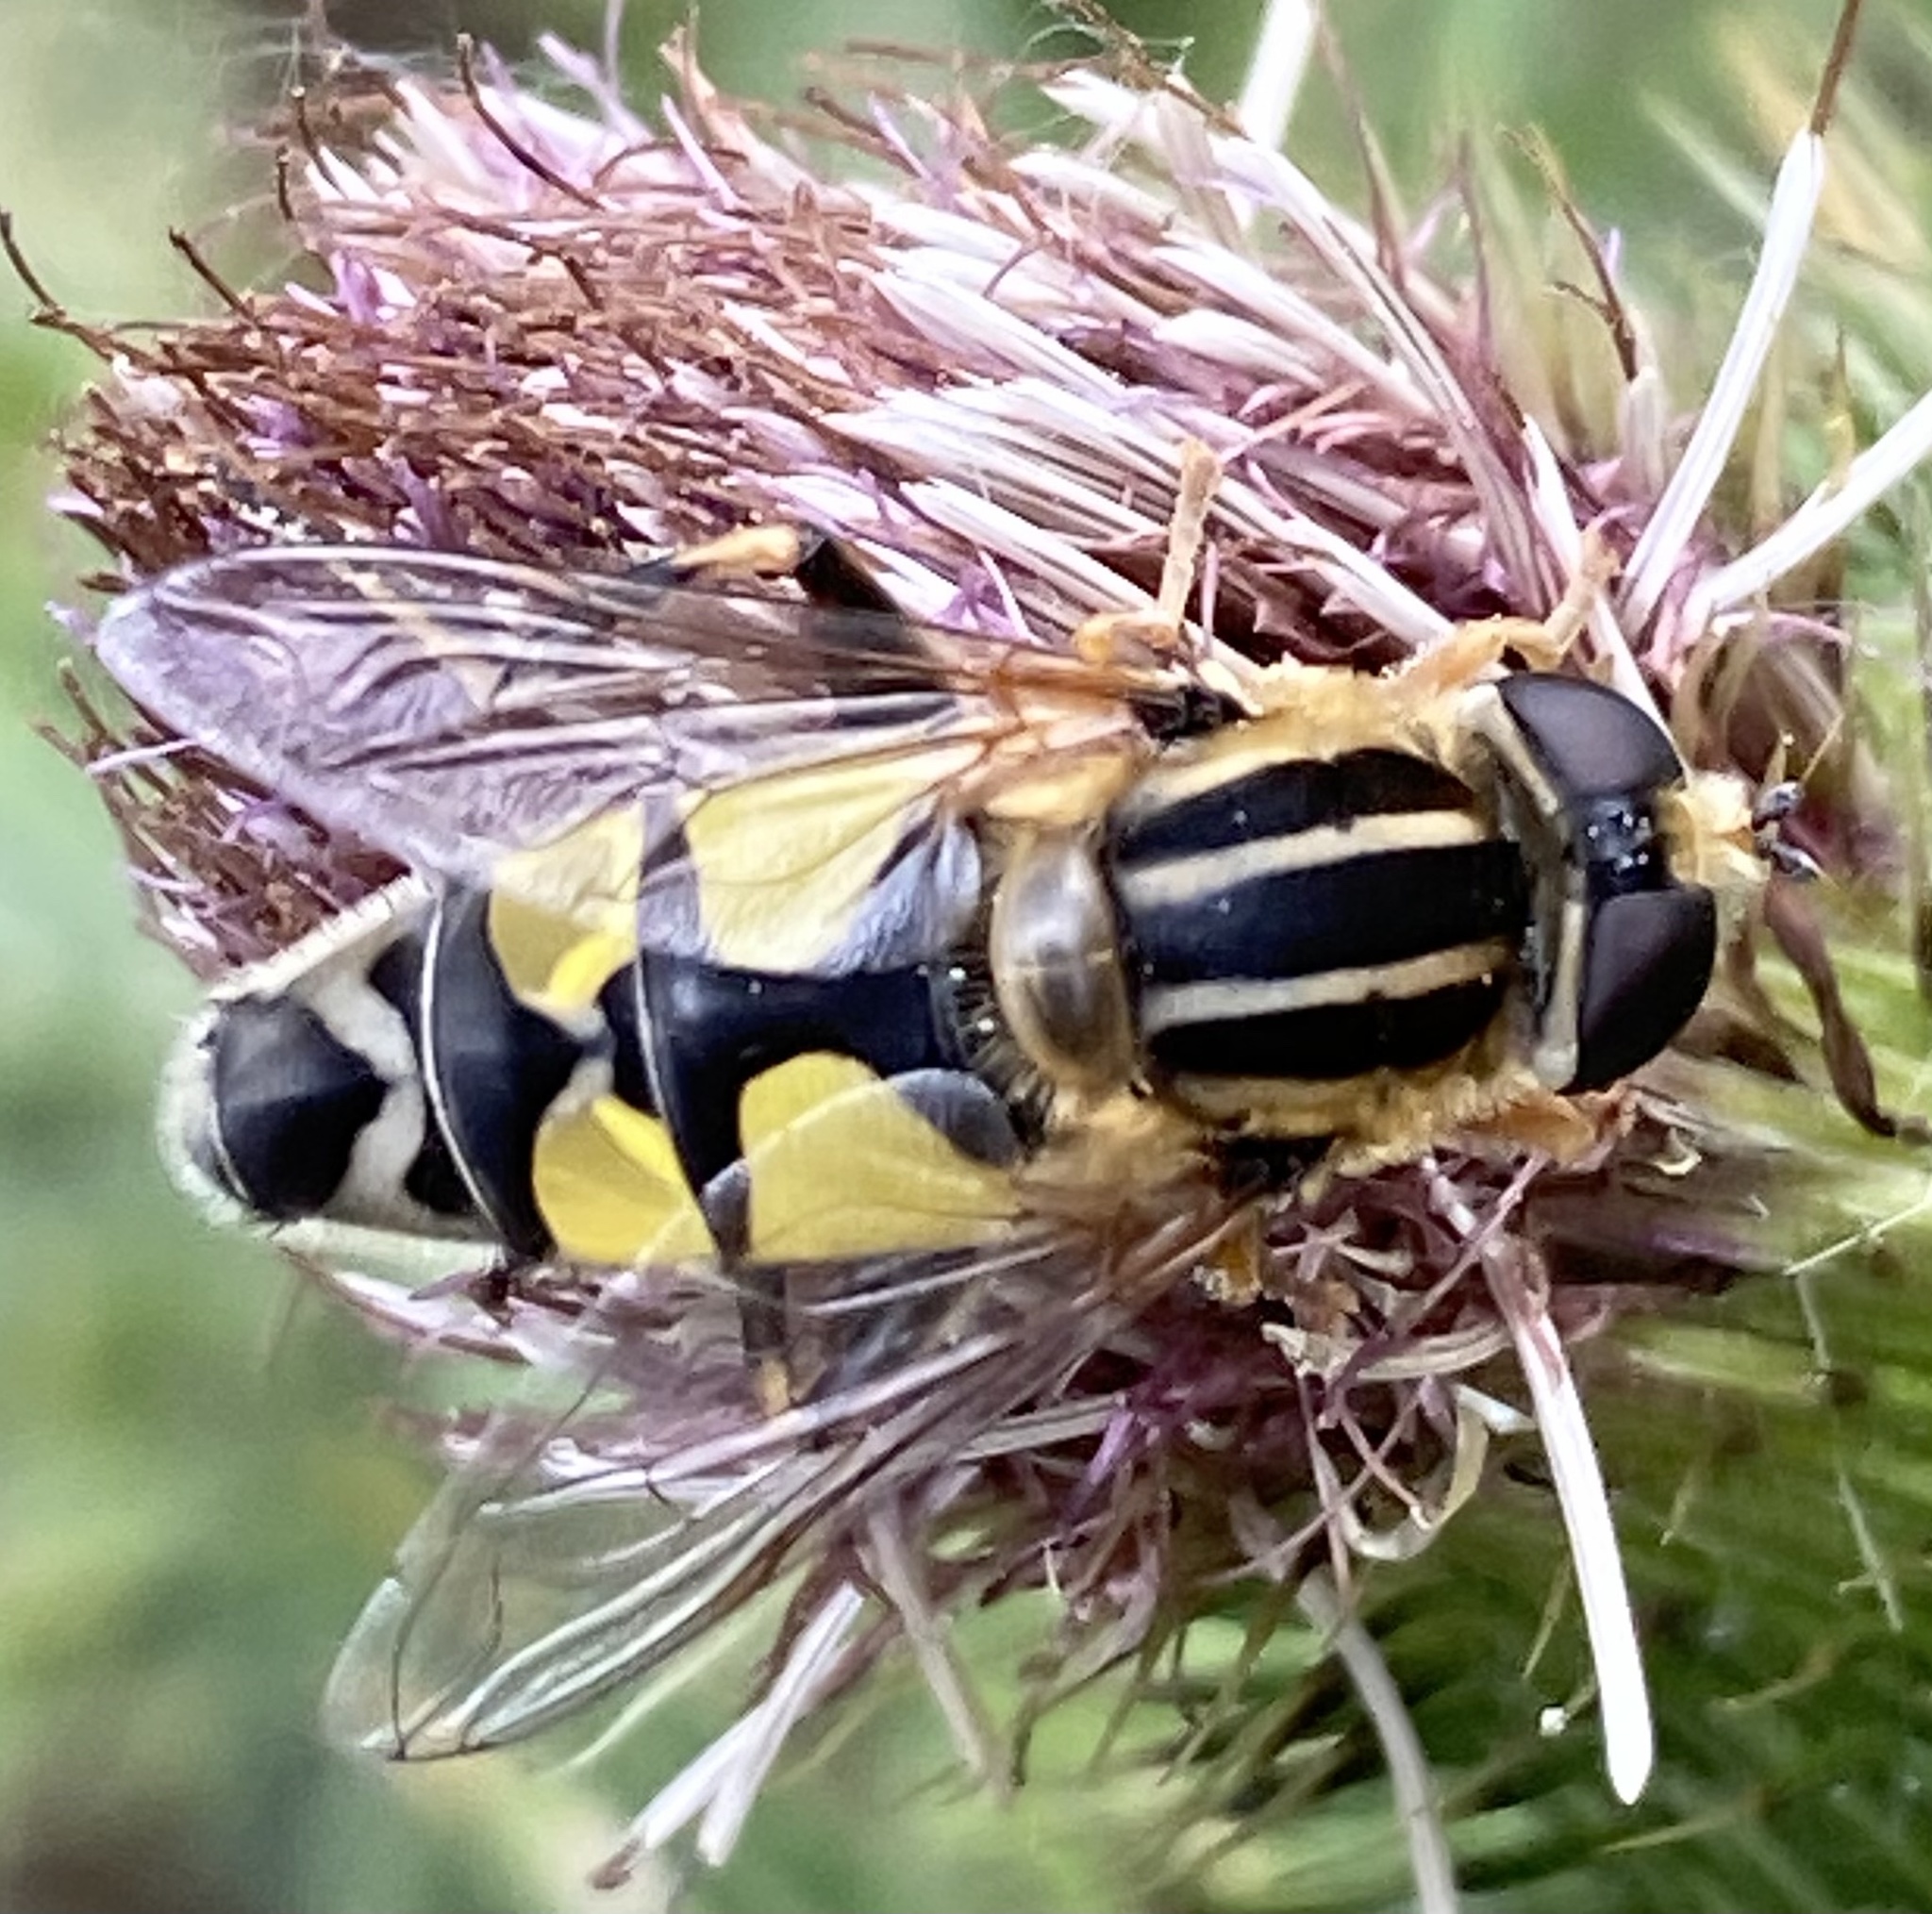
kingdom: Animalia
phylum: Arthropoda
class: Insecta
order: Diptera
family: Syrphidae
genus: Helophilus
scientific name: Helophilus trivittatus
